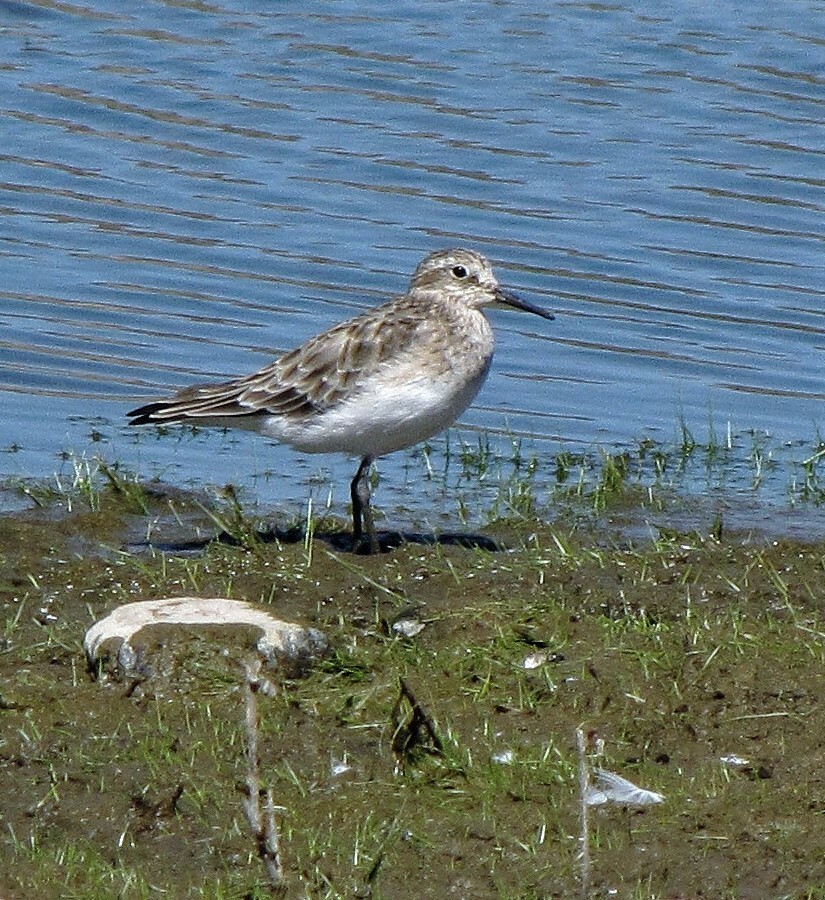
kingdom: Animalia
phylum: Chordata
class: Aves
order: Charadriiformes
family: Scolopacidae
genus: Calidris
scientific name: Calidris bairdii
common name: Baird's sandpiper
